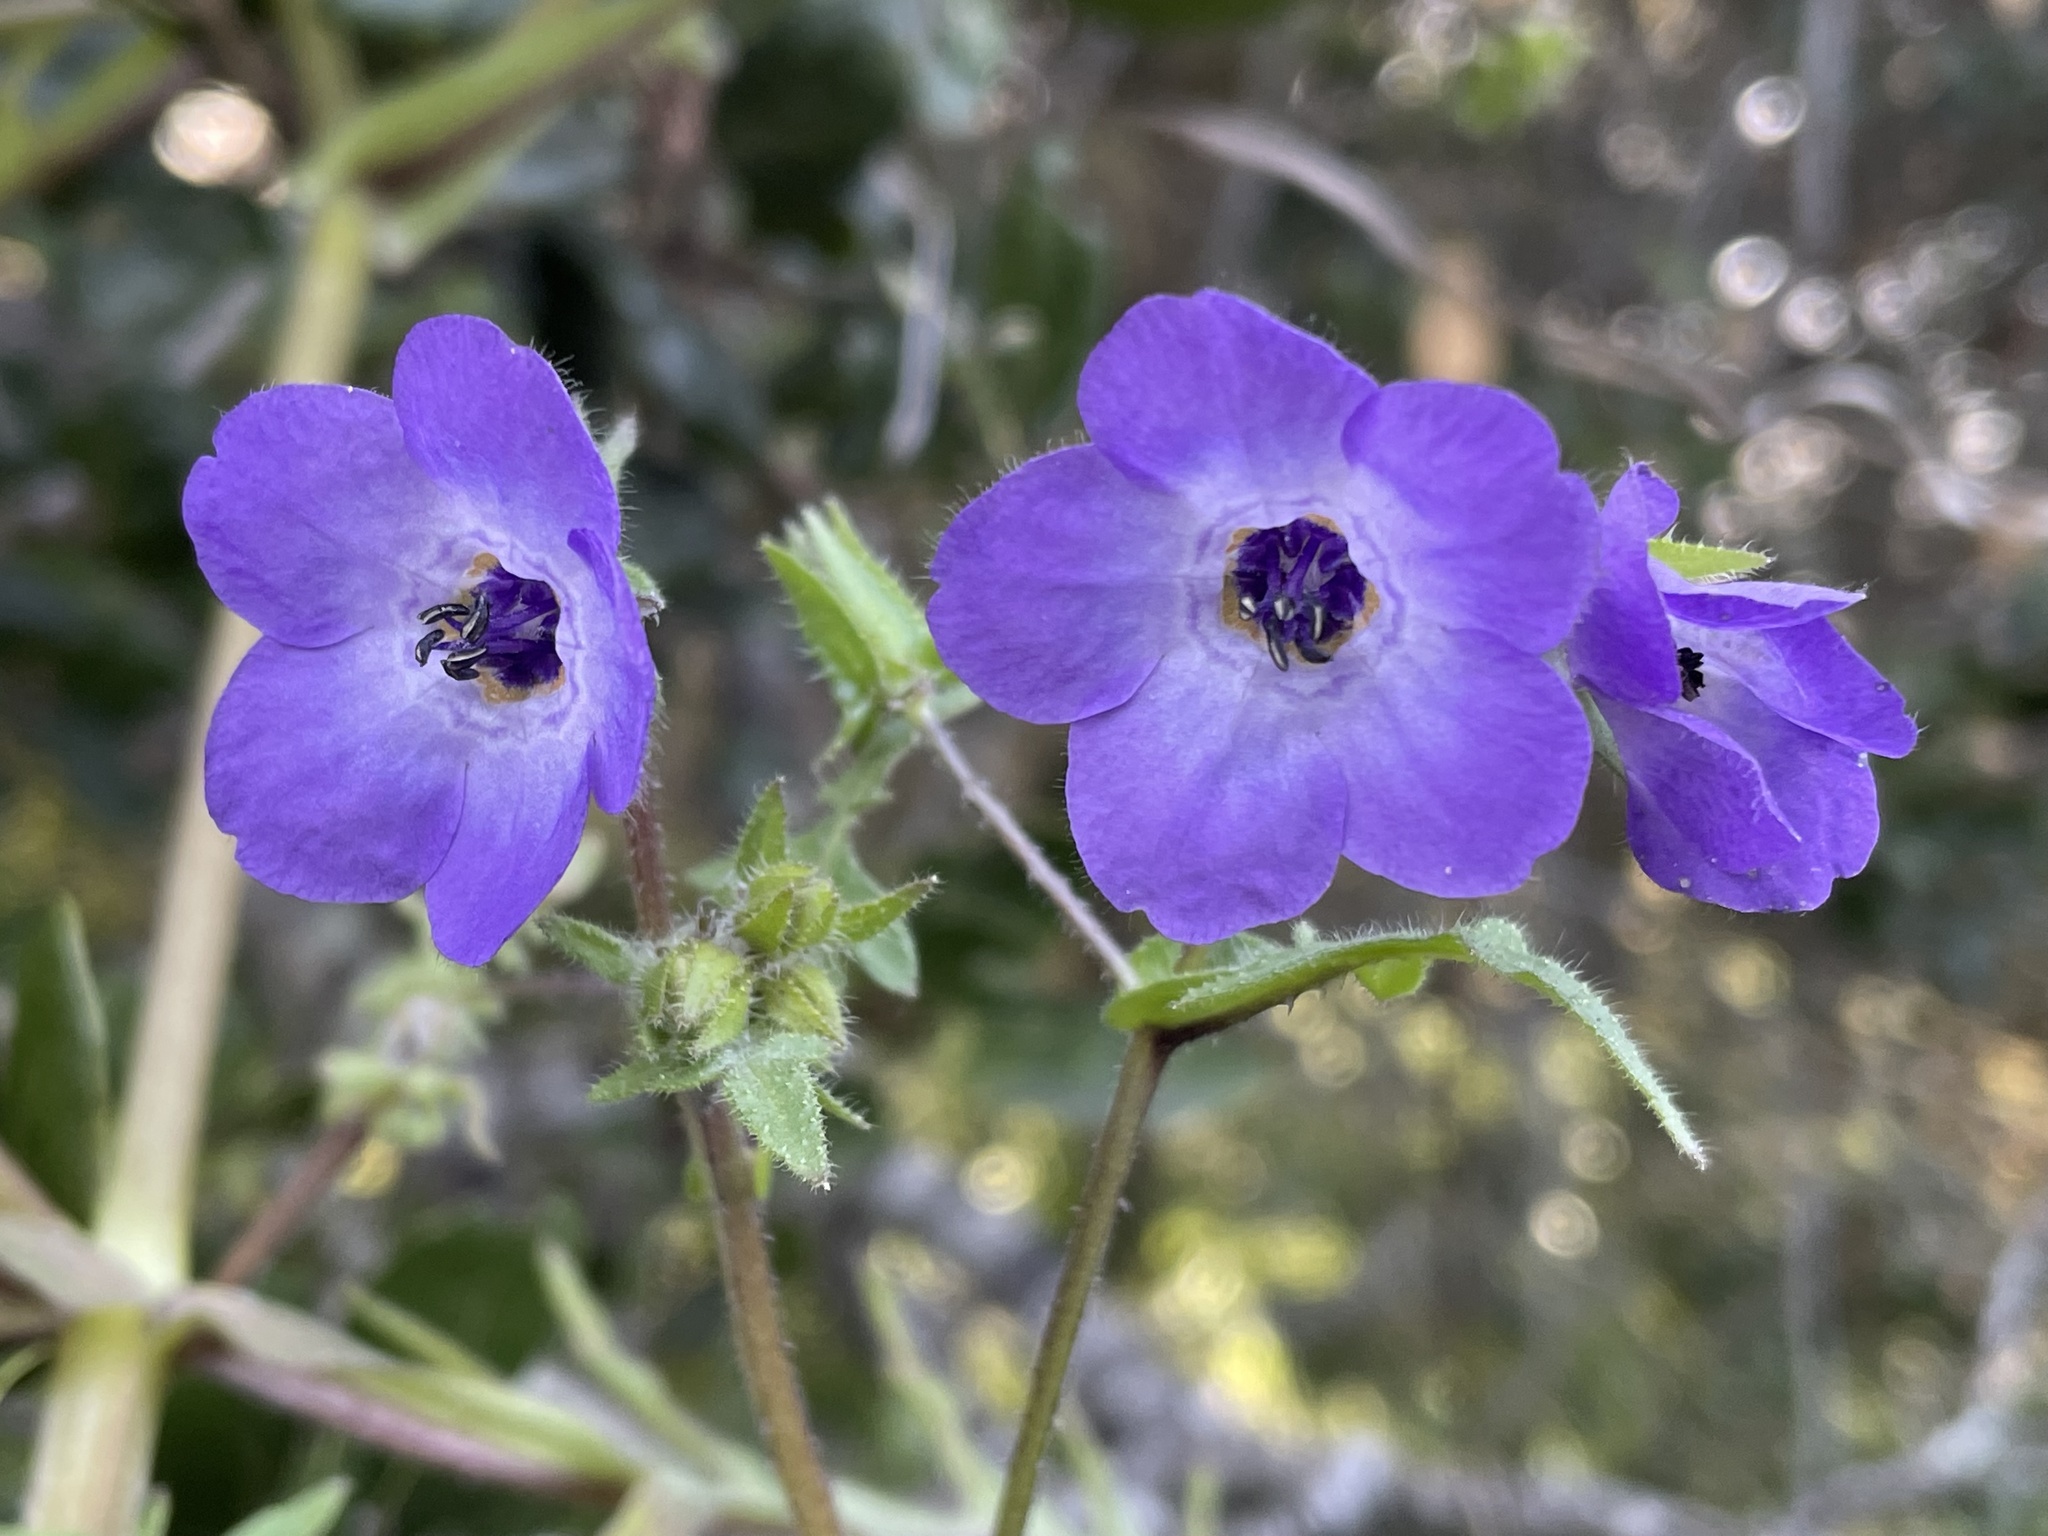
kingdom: Plantae
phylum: Tracheophyta
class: Magnoliopsida
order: Boraginales
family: Hydrophyllaceae
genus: Pholistoma
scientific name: Pholistoma auritum
